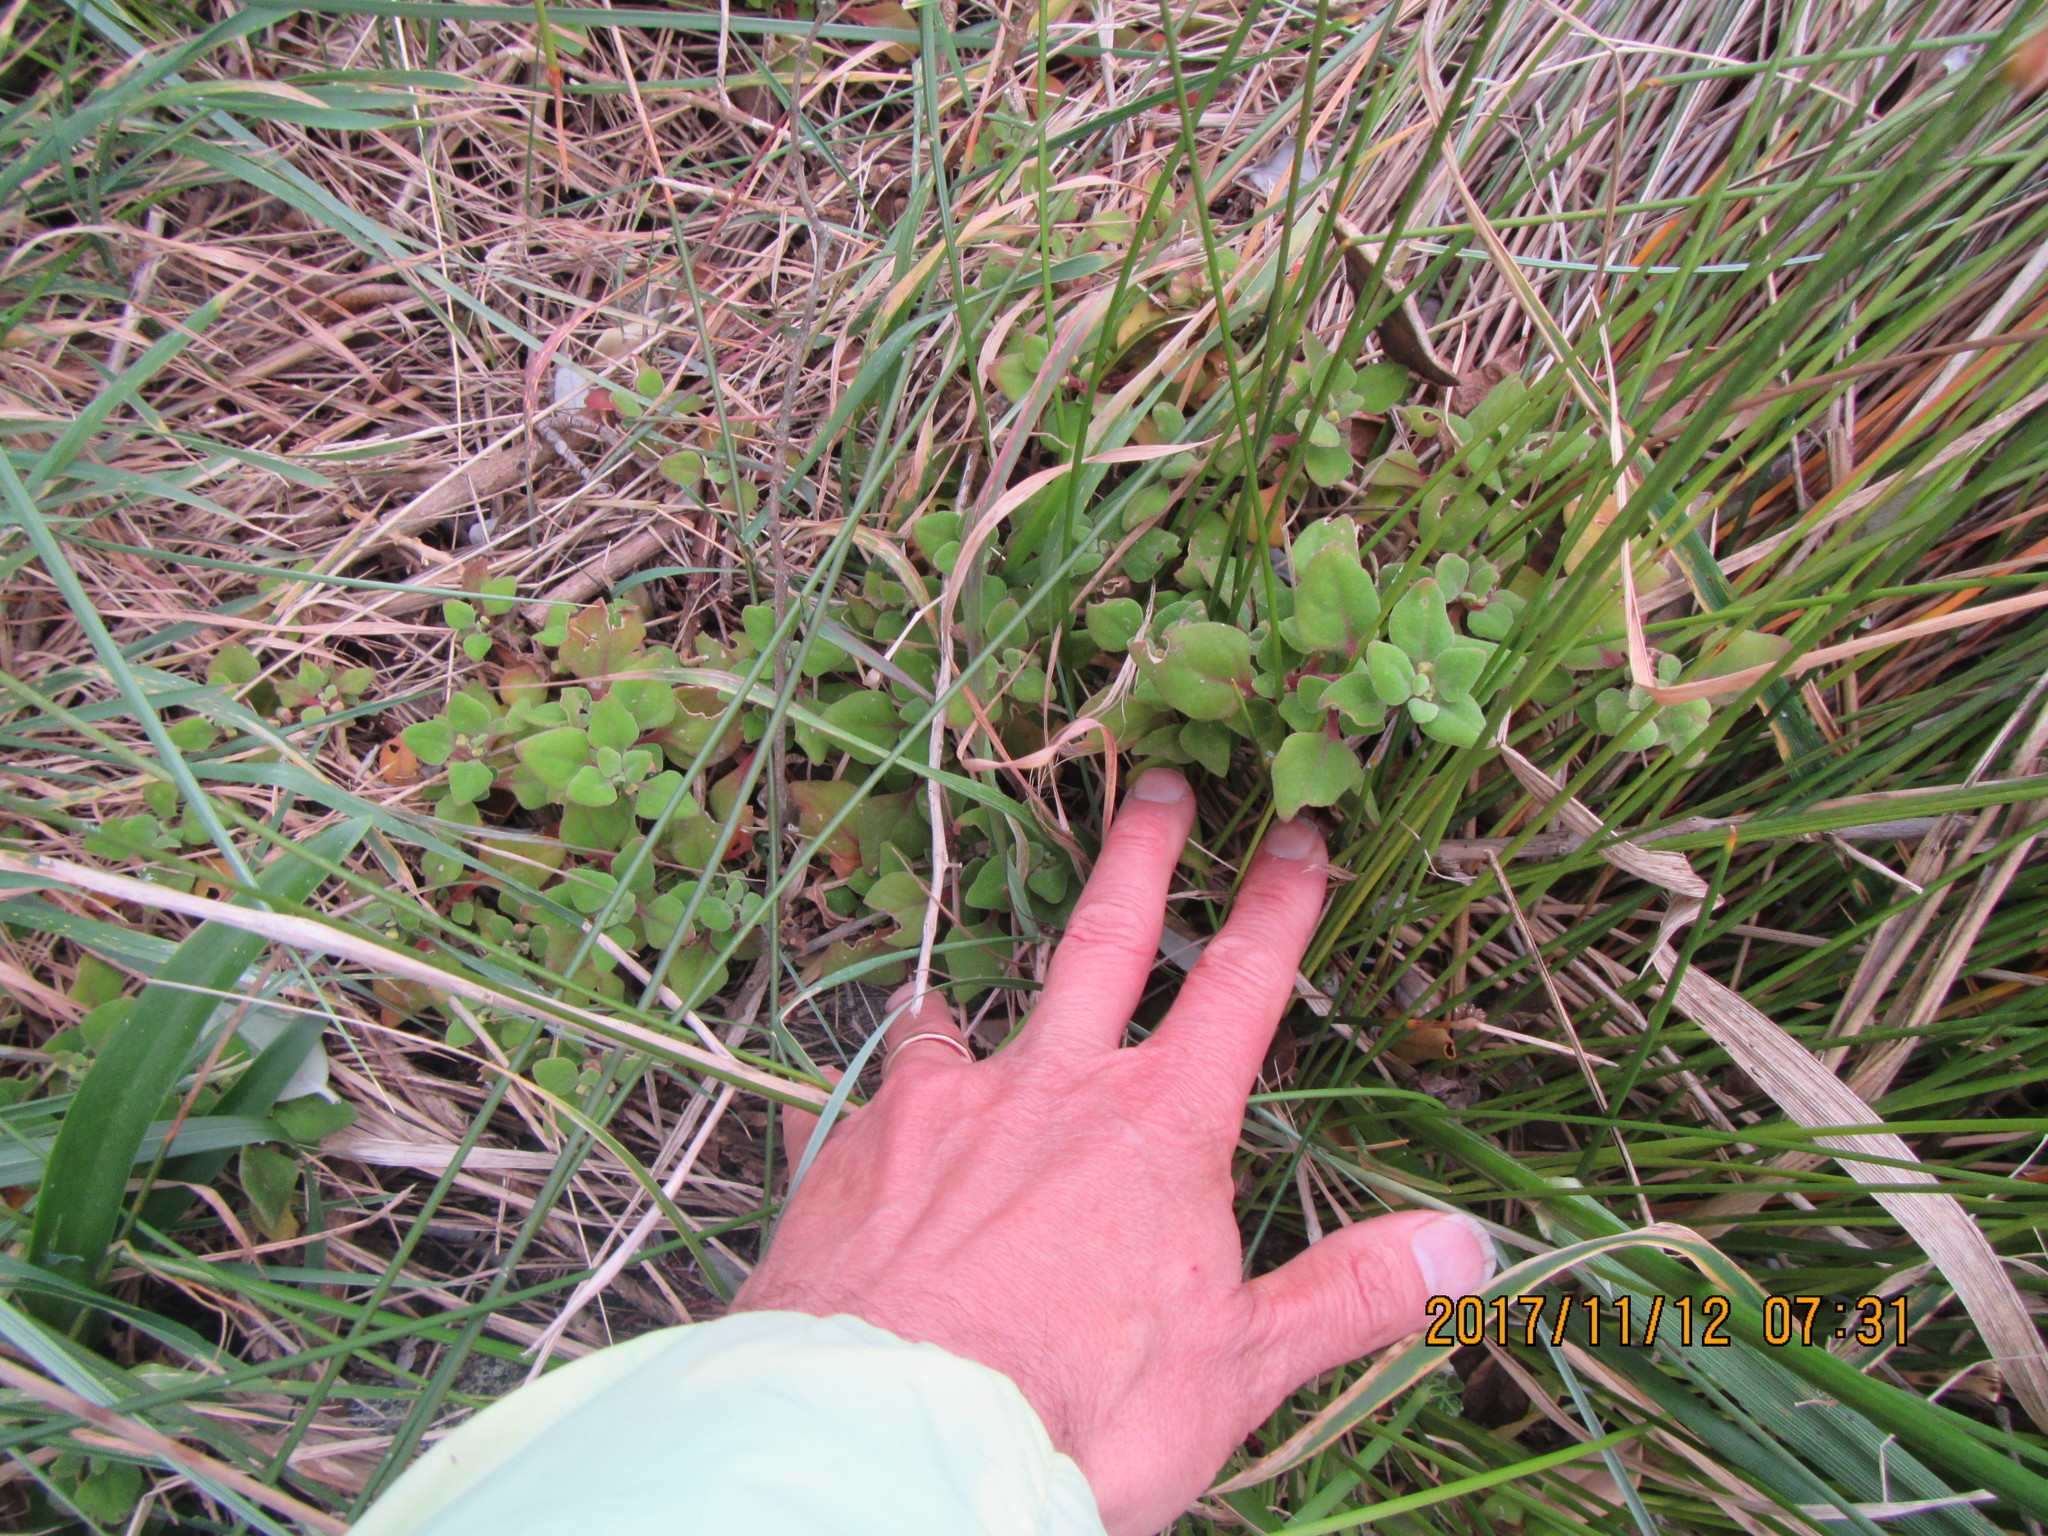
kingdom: Plantae
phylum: Tracheophyta
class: Magnoliopsida
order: Caryophyllales
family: Aizoaceae
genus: Tetragonia
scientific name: Tetragonia implexicoma
